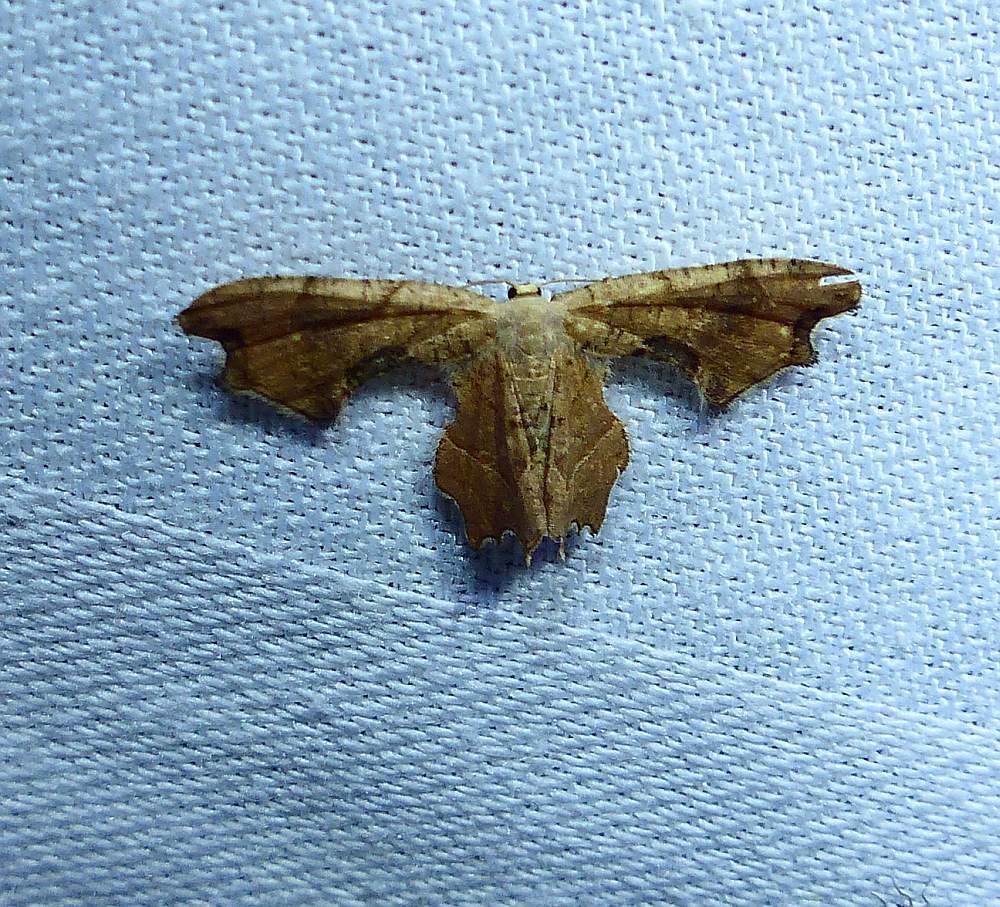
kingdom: Animalia
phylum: Arthropoda
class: Insecta
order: Lepidoptera
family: Uraniidae
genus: Epiplema
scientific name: Epiplema Calledapteryx dryopterata
